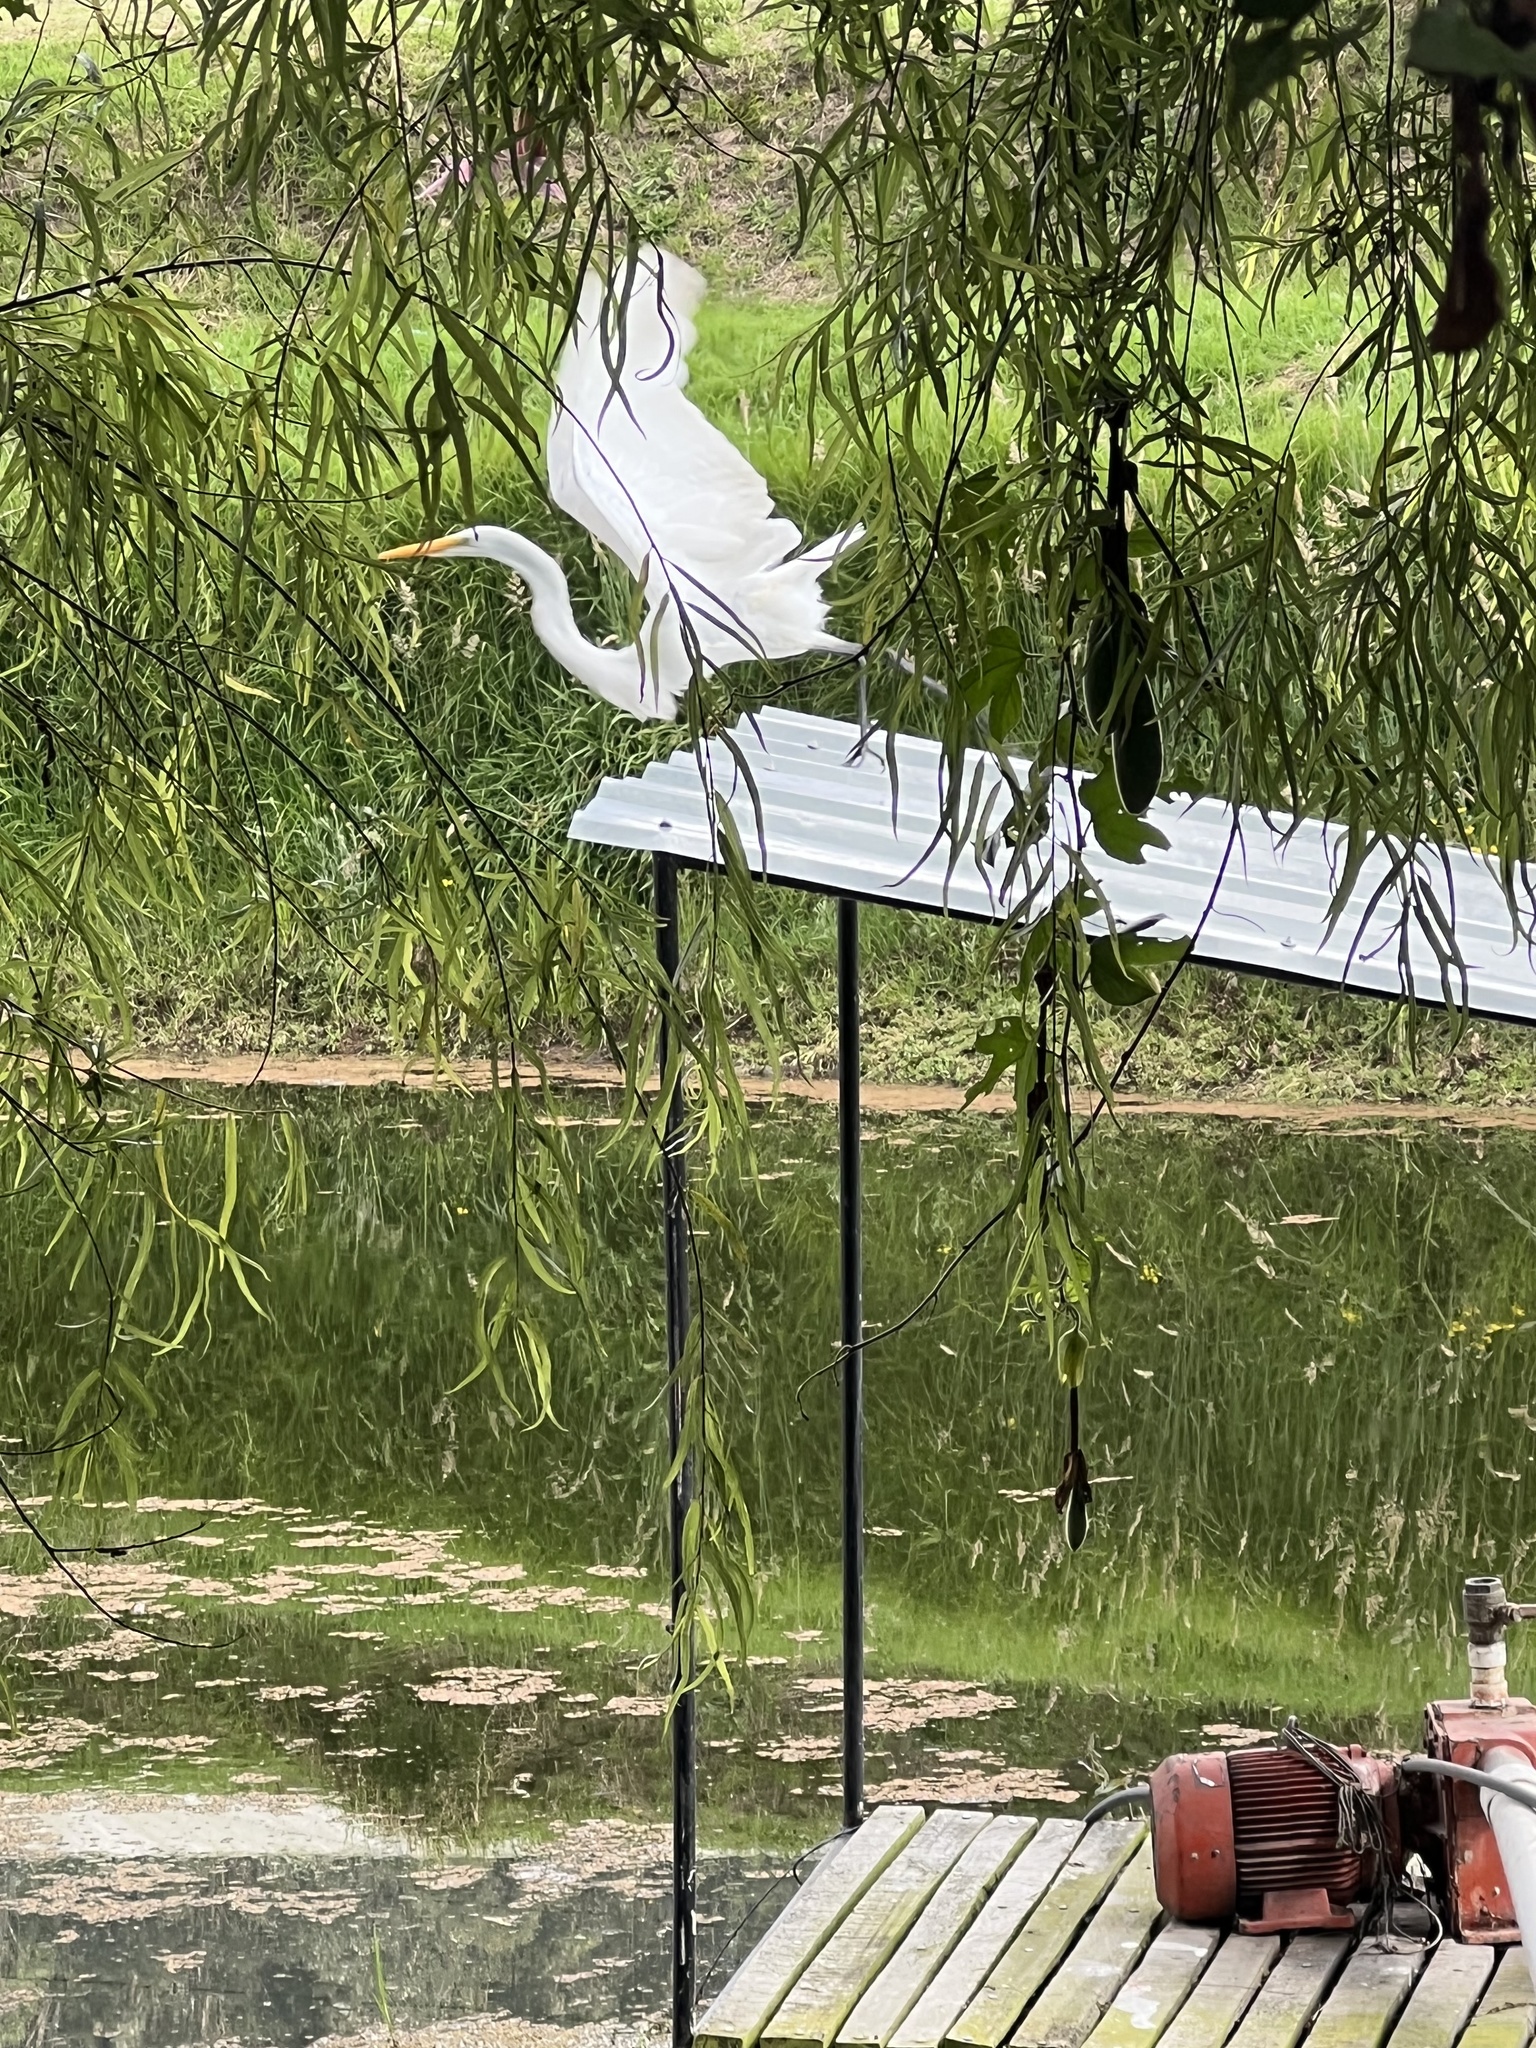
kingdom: Animalia
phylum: Chordata
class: Aves
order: Pelecaniformes
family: Ardeidae
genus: Ardea
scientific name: Ardea alba
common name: Great egret
